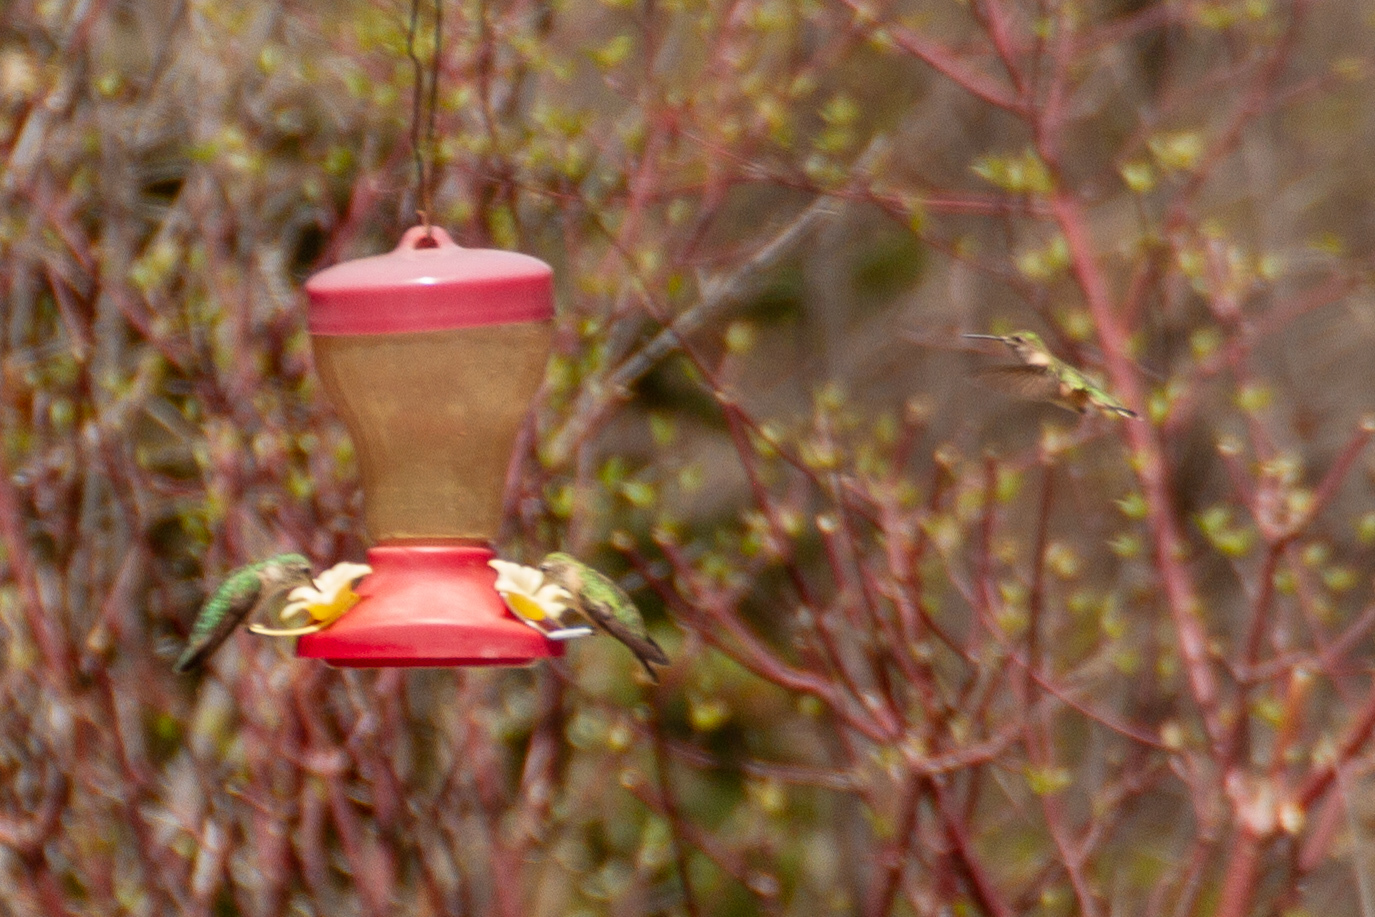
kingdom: Animalia
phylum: Chordata
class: Aves
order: Apodiformes
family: Trochilidae
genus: Selasphorus
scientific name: Selasphorus platycercus
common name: Broad-tailed hummingbird
